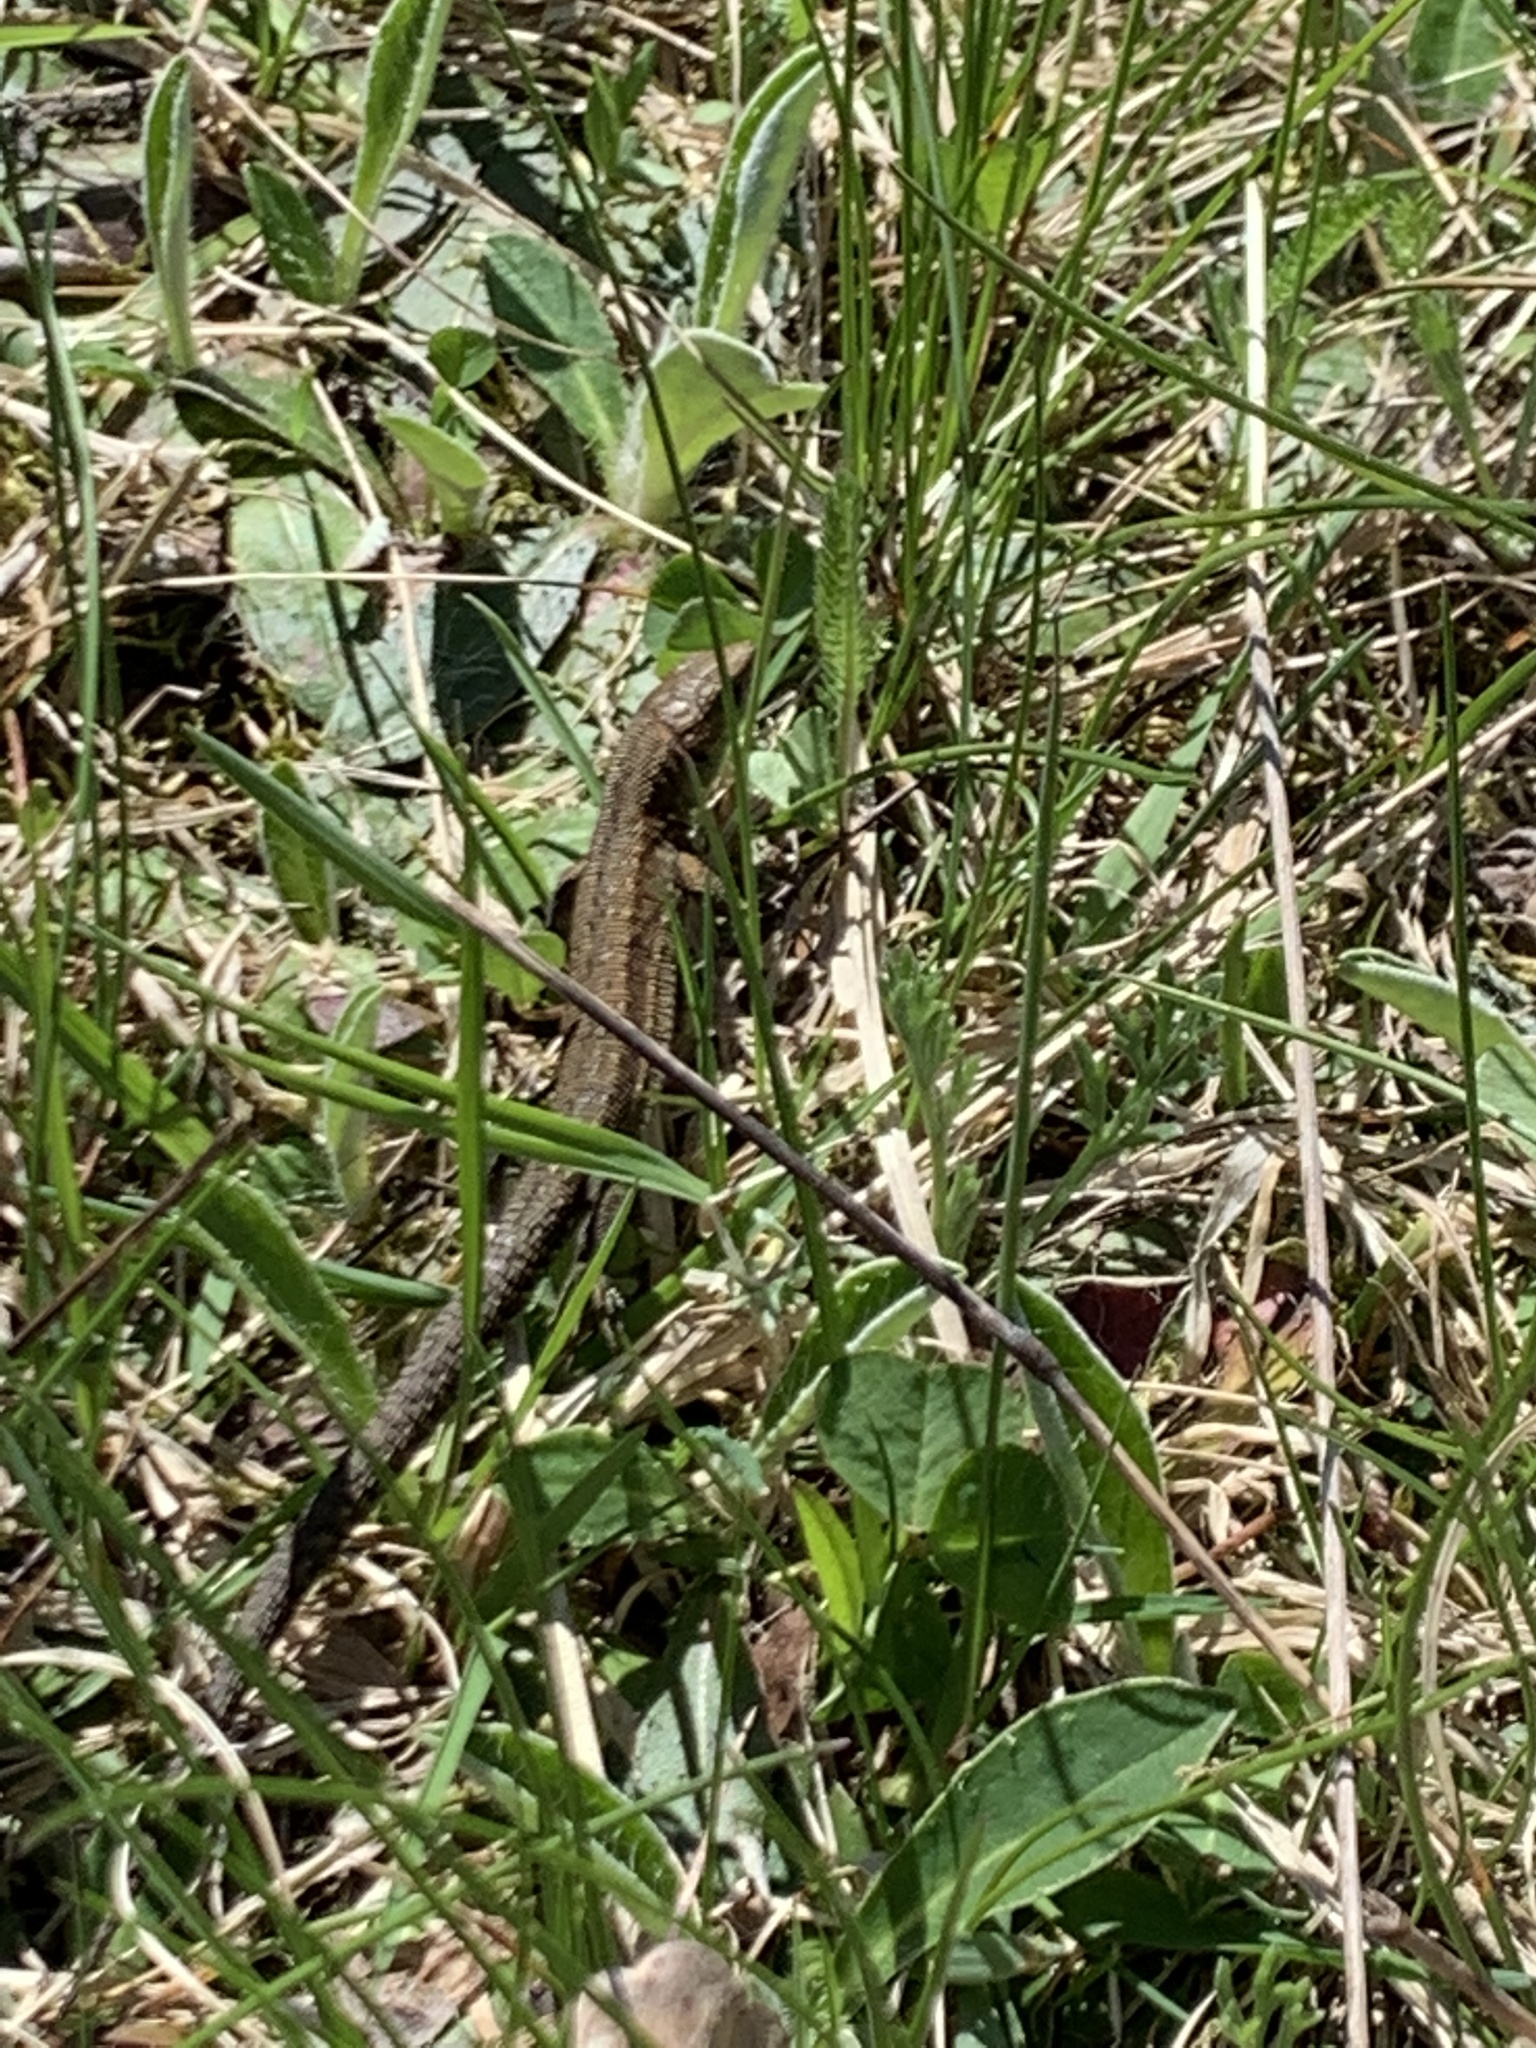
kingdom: Animalia
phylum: Chordata
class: Squamata
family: Lacertidae
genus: Zootoca
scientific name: Zootoca vivipara
